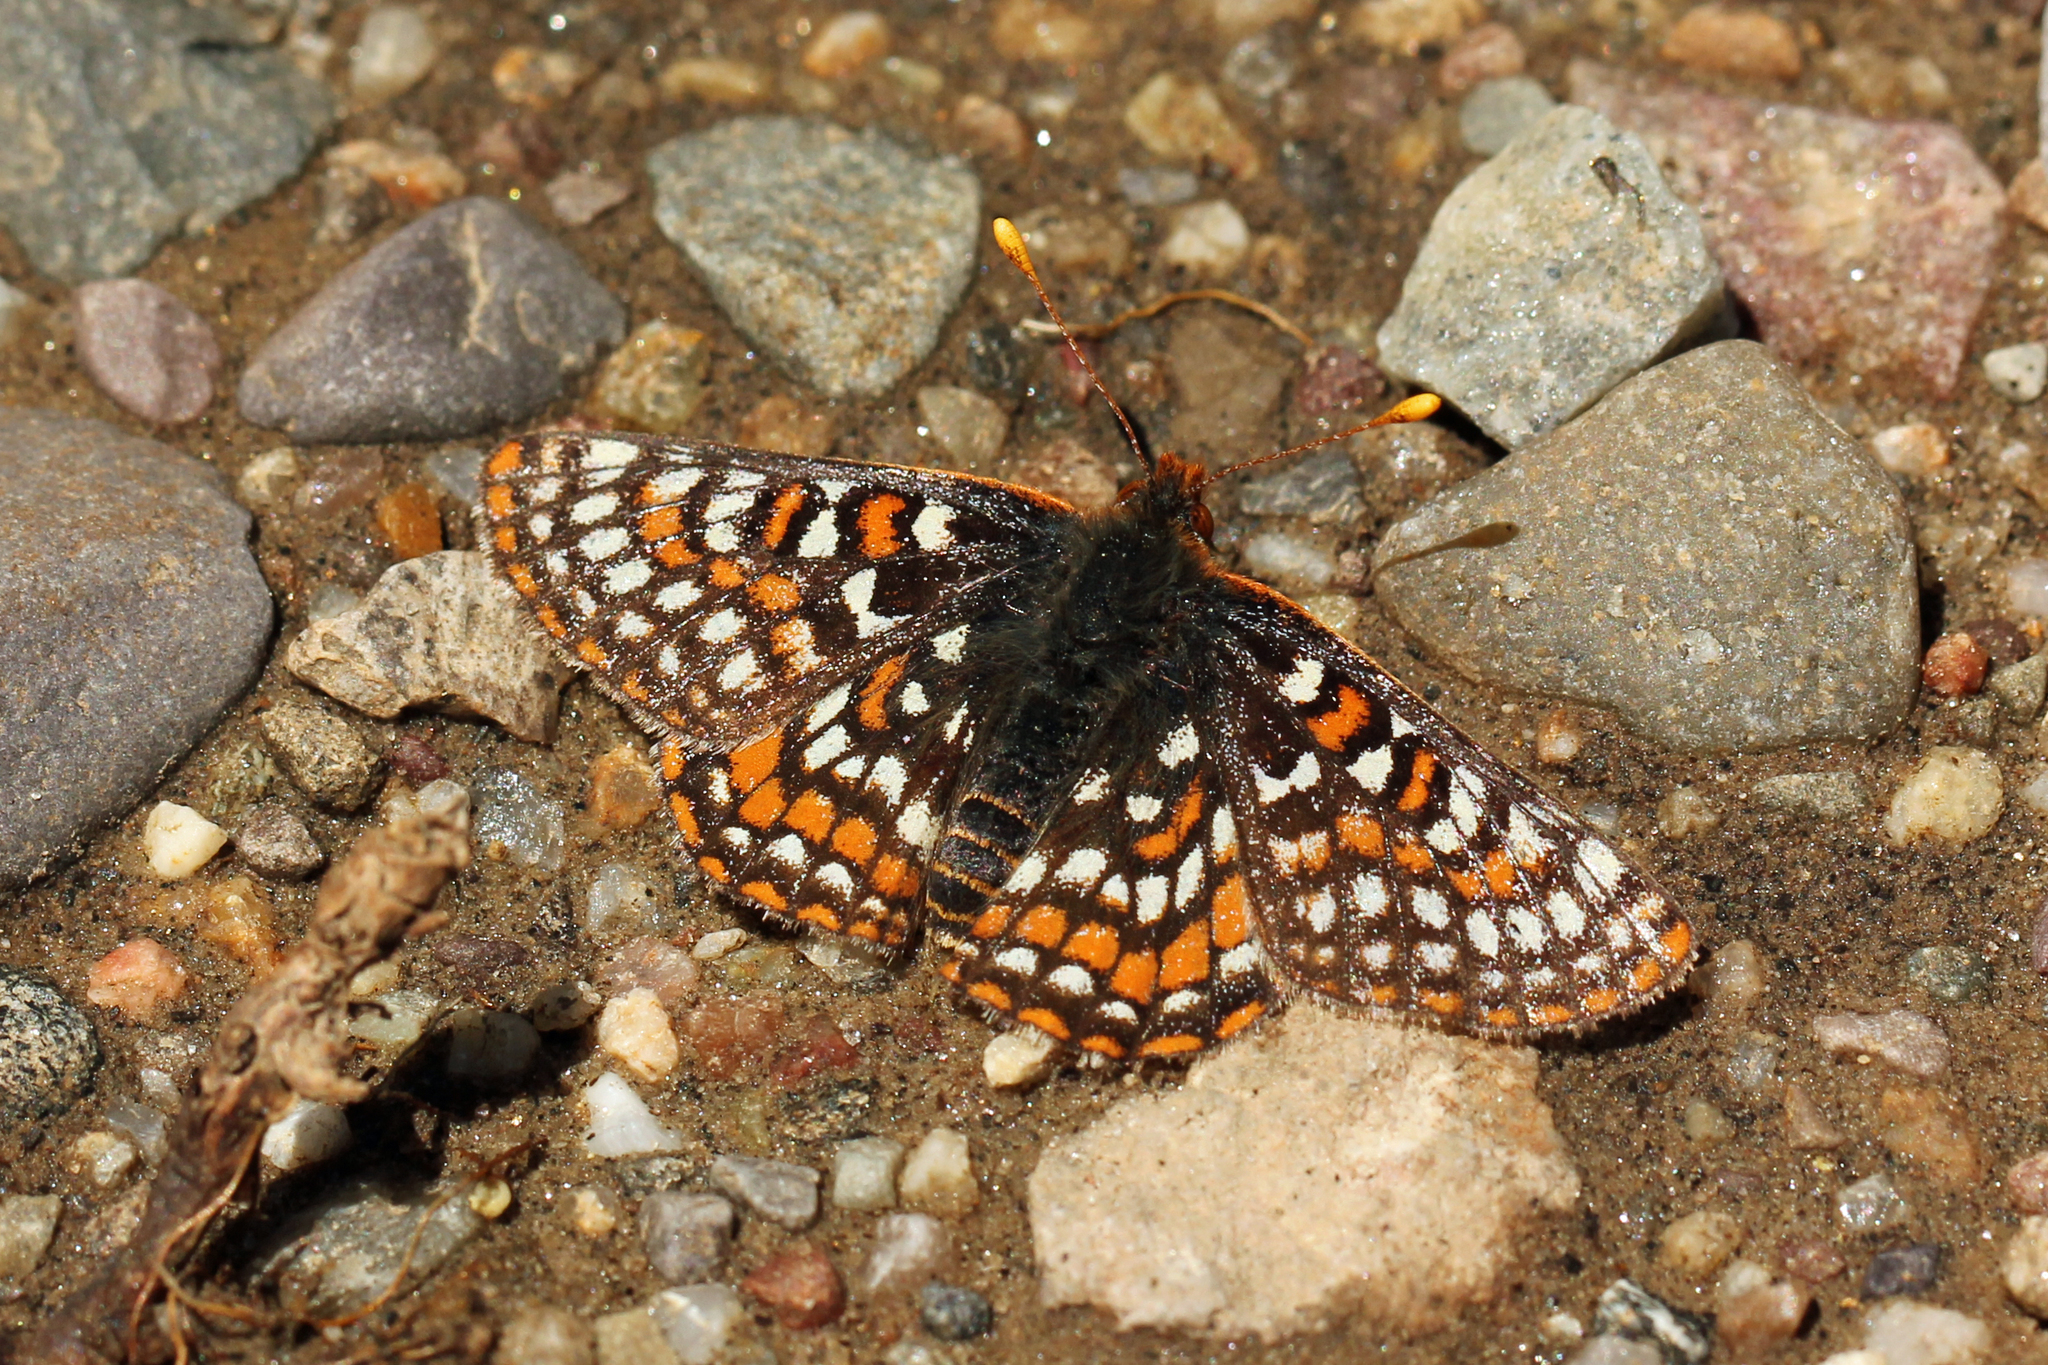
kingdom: Animalia
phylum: Arthropoda
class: Insecta
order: Lepidoptera
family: Nymphalidae
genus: Occidryas
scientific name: Occidryas editha
